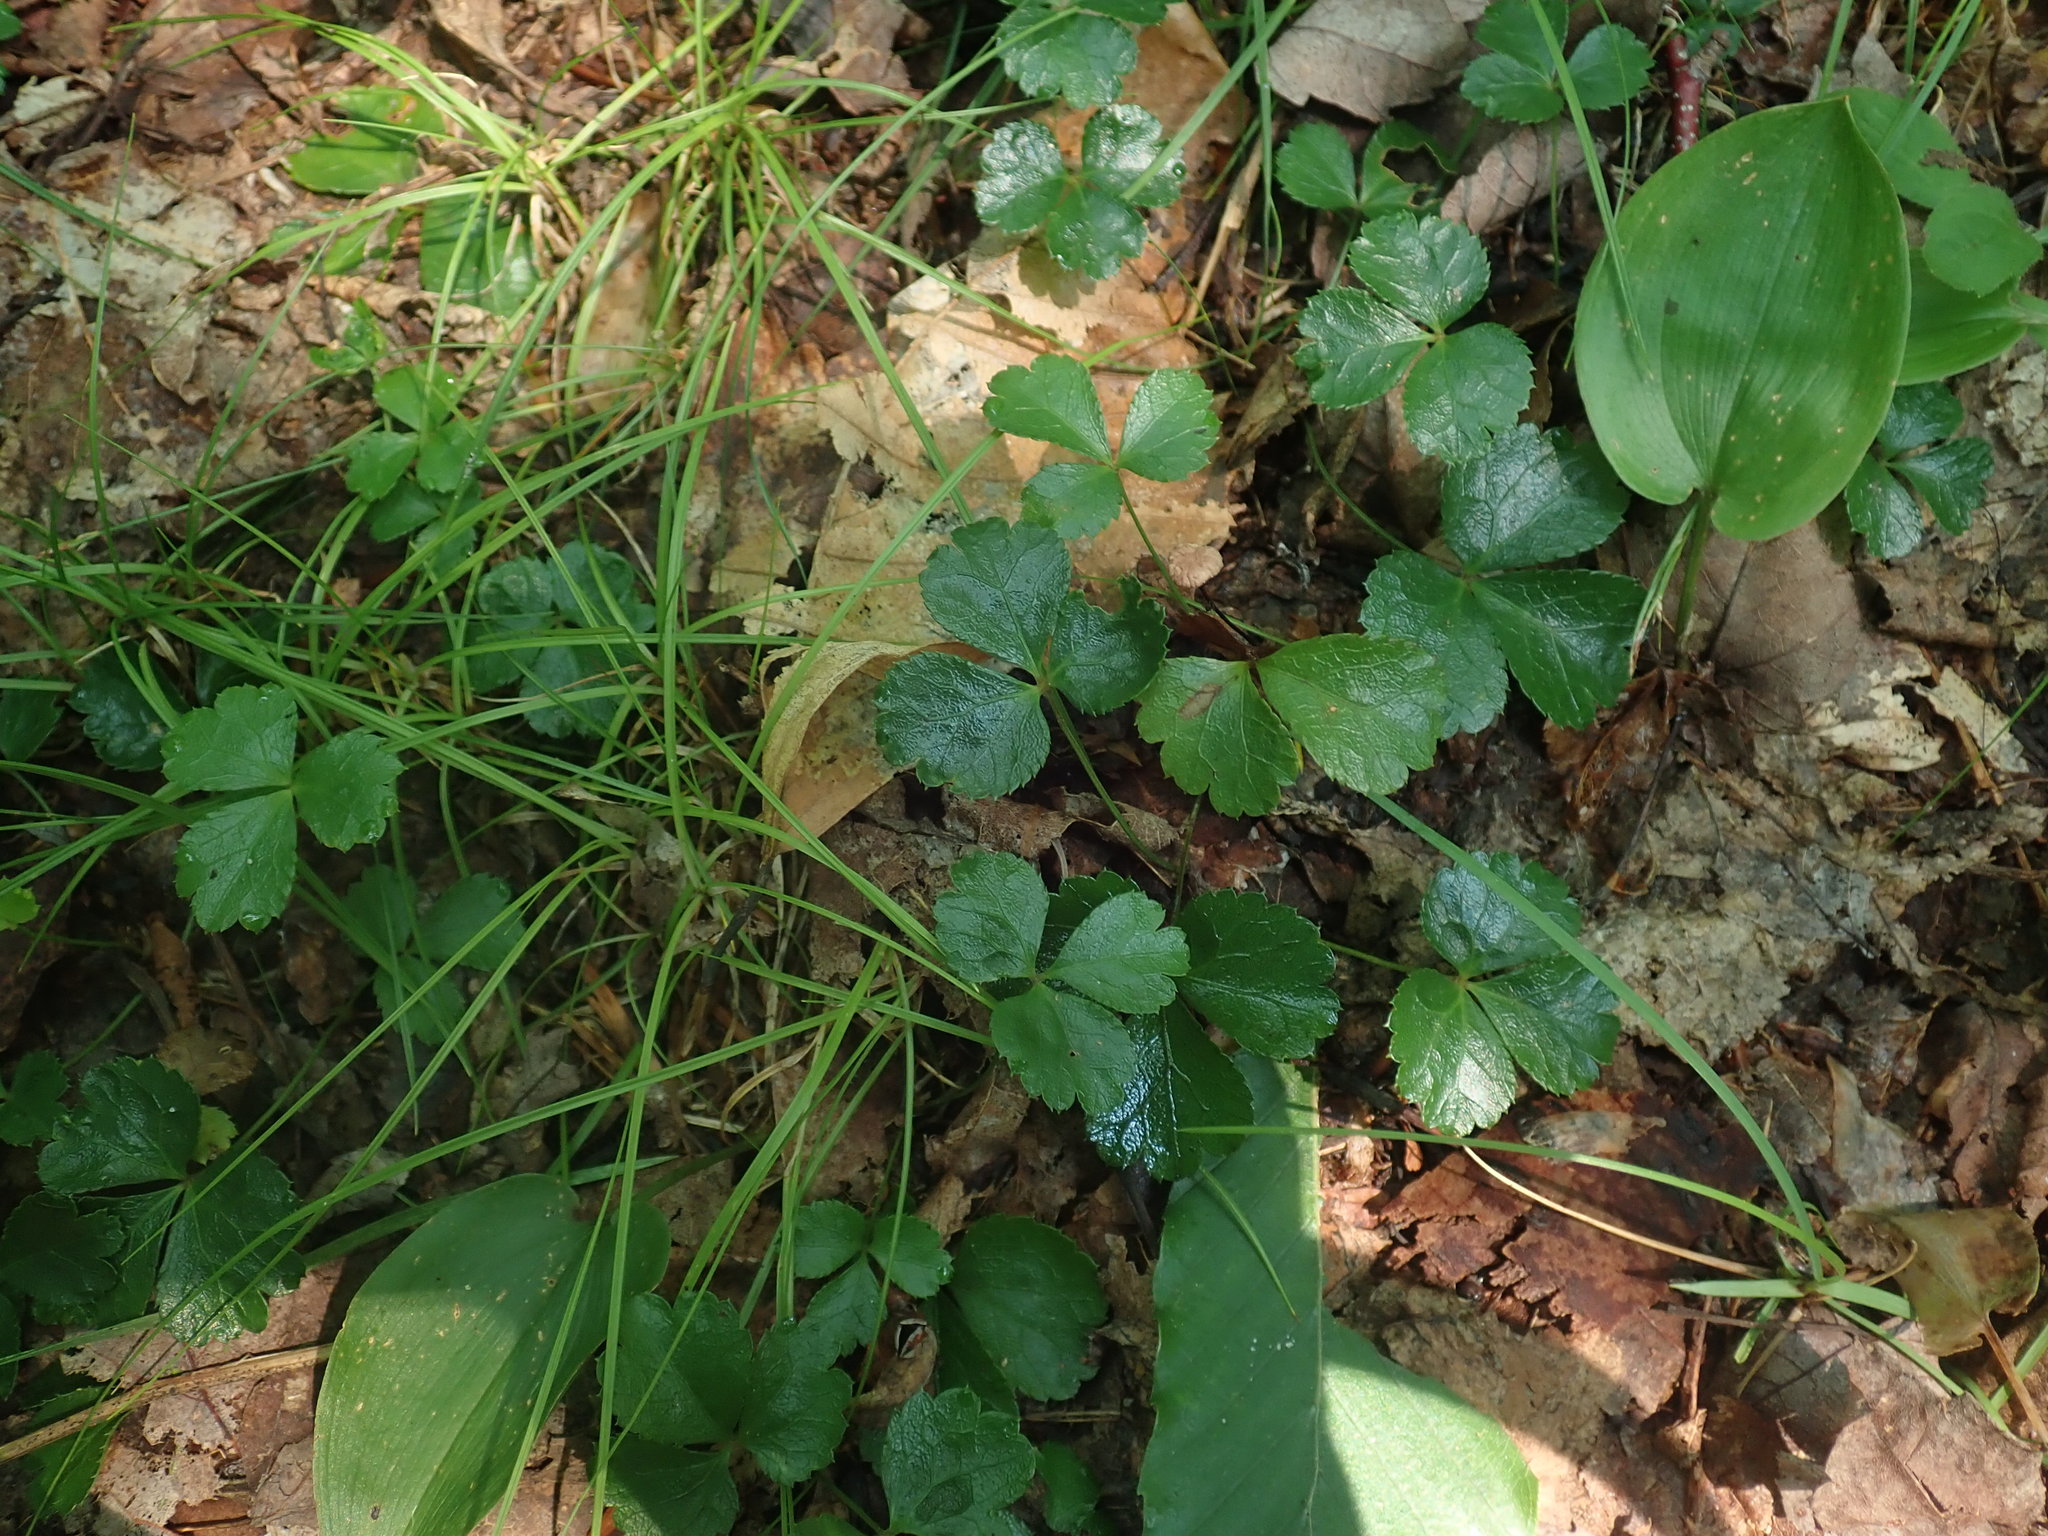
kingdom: Plantae
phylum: Tracheophyta
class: Magnoliopsida
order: Ranunculales
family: Ranunculaceae
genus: Coptis
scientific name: Coptis trifolia
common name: Canker-root
